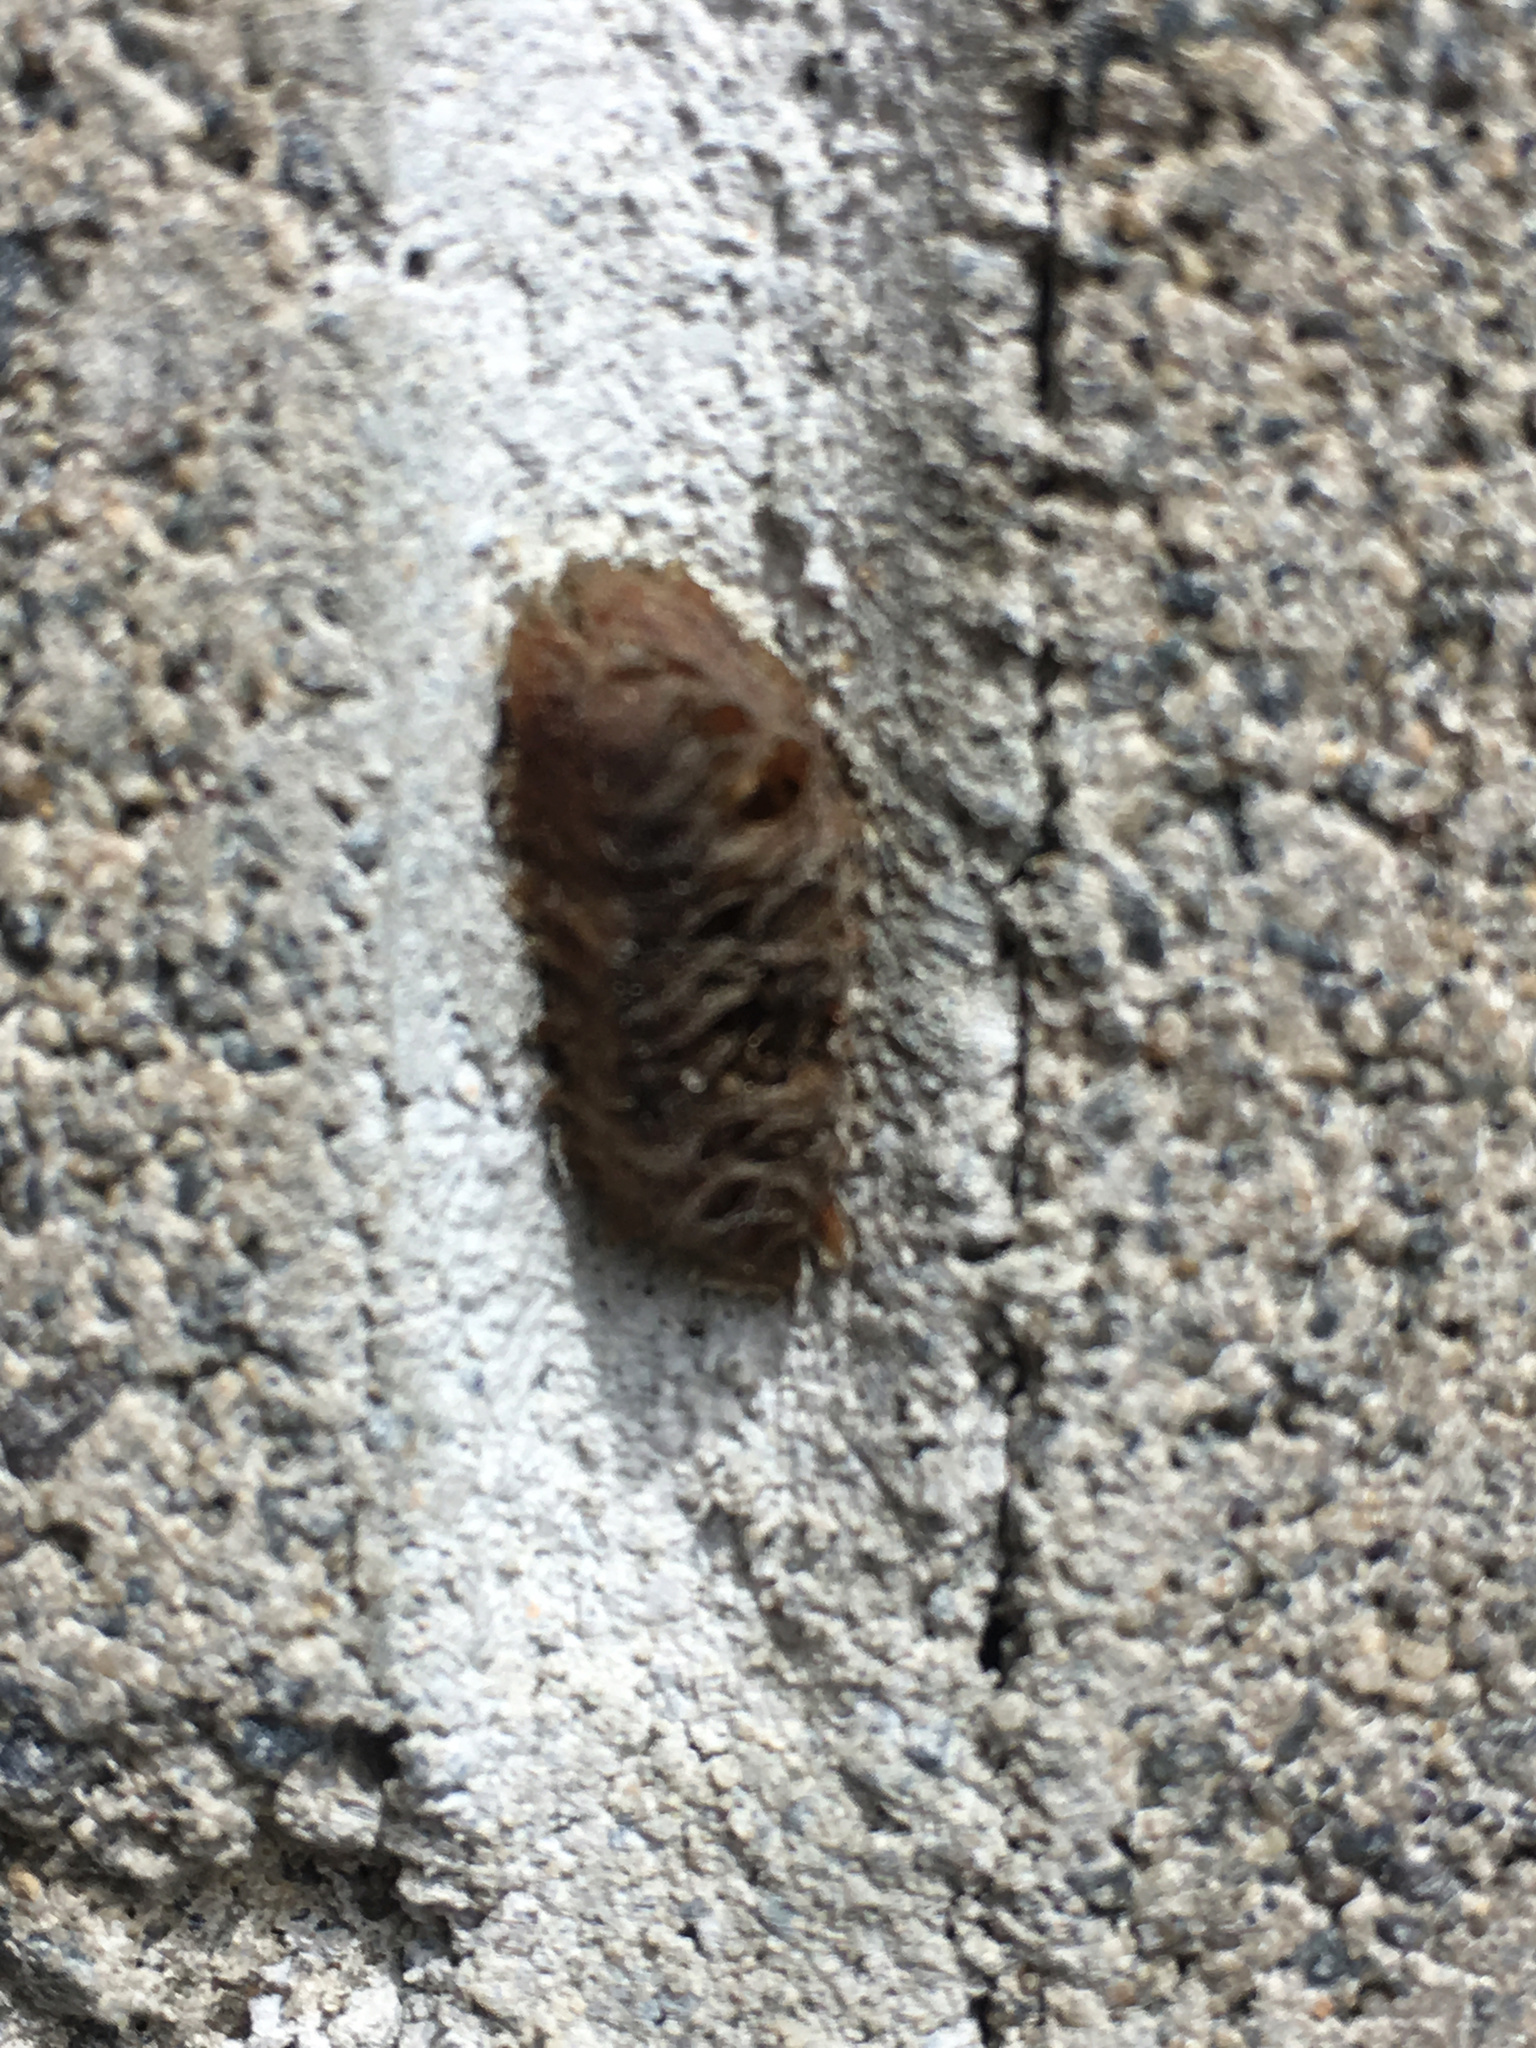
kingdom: Animalia
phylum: Arthropoda
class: Insecta
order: Mantodea
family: Mantidae
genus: Orthodera
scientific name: Orthodera novaezealandiae
